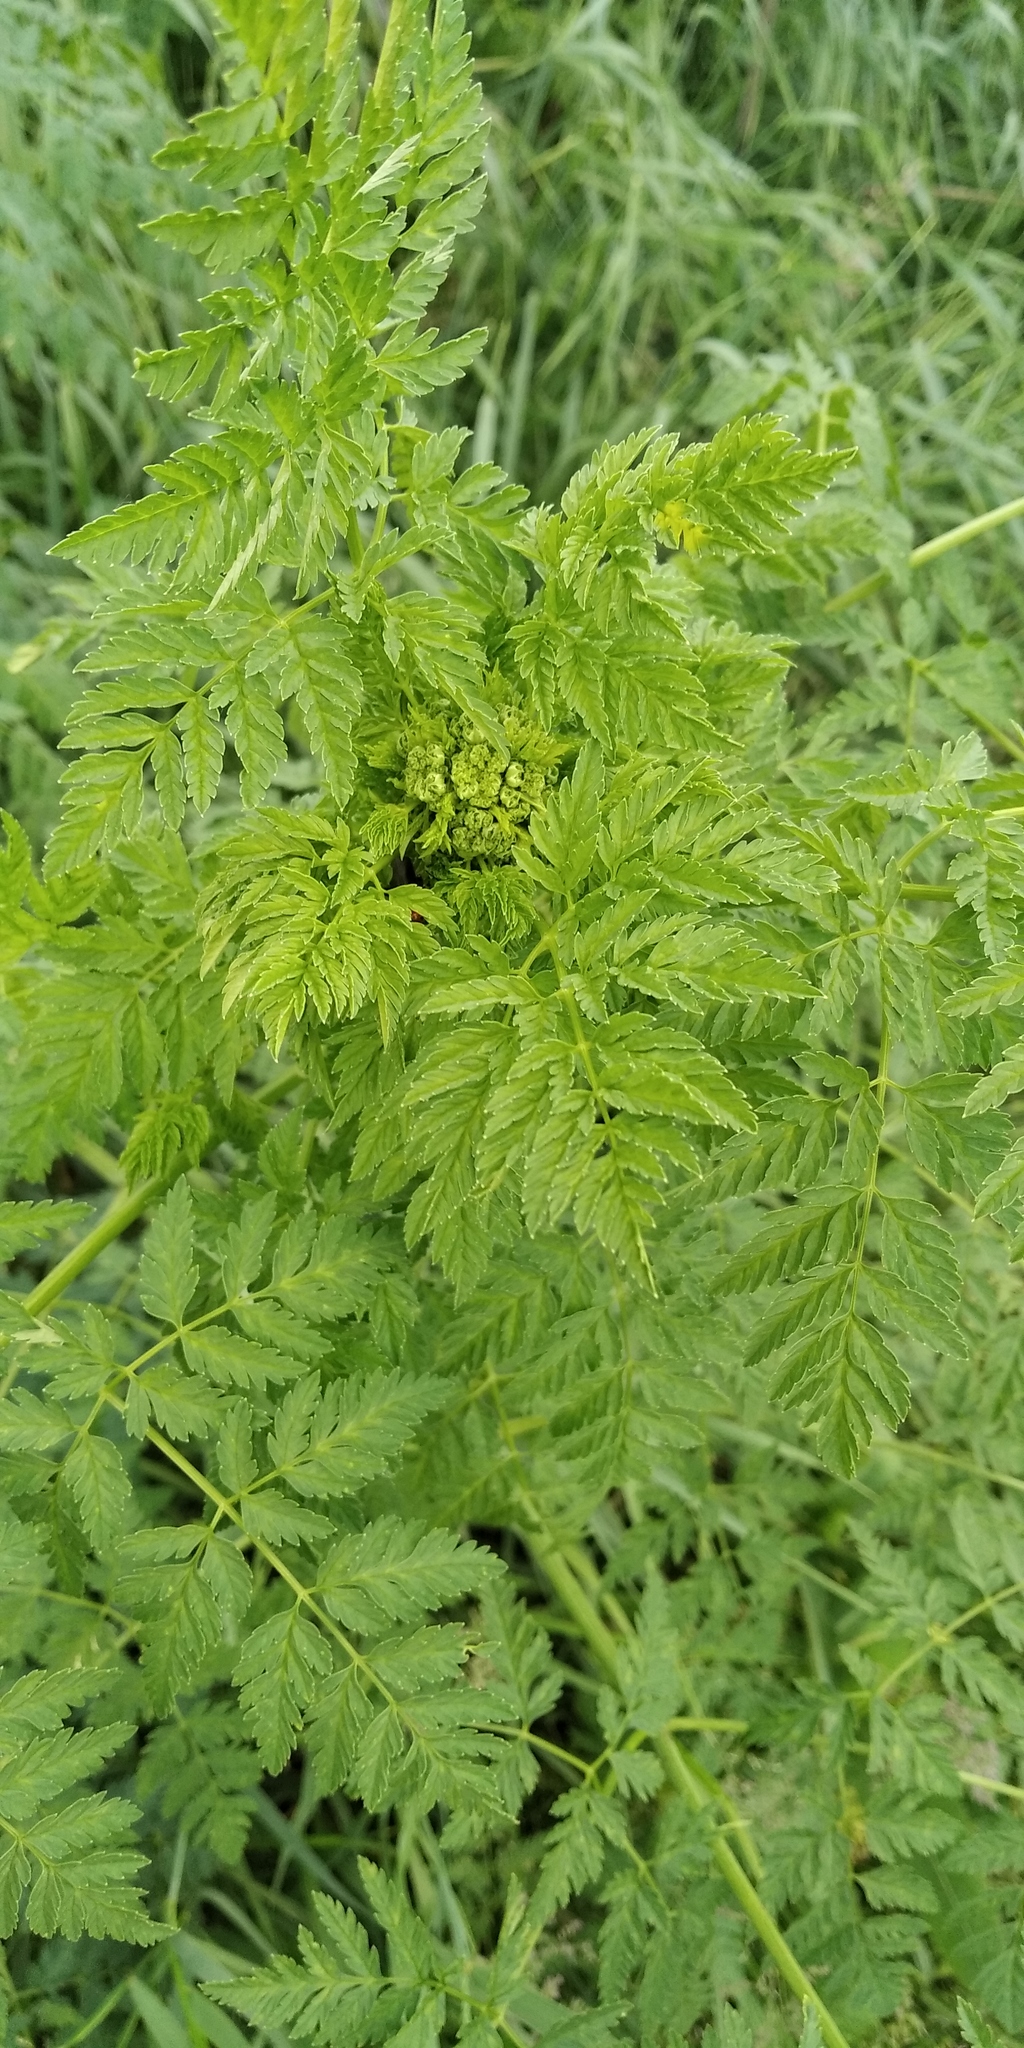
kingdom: Plantae
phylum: Tracheophyta
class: Magnoliopsida
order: Apiales
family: Apiaceae
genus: Conium
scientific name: Conium maculatum
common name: Hemlock
